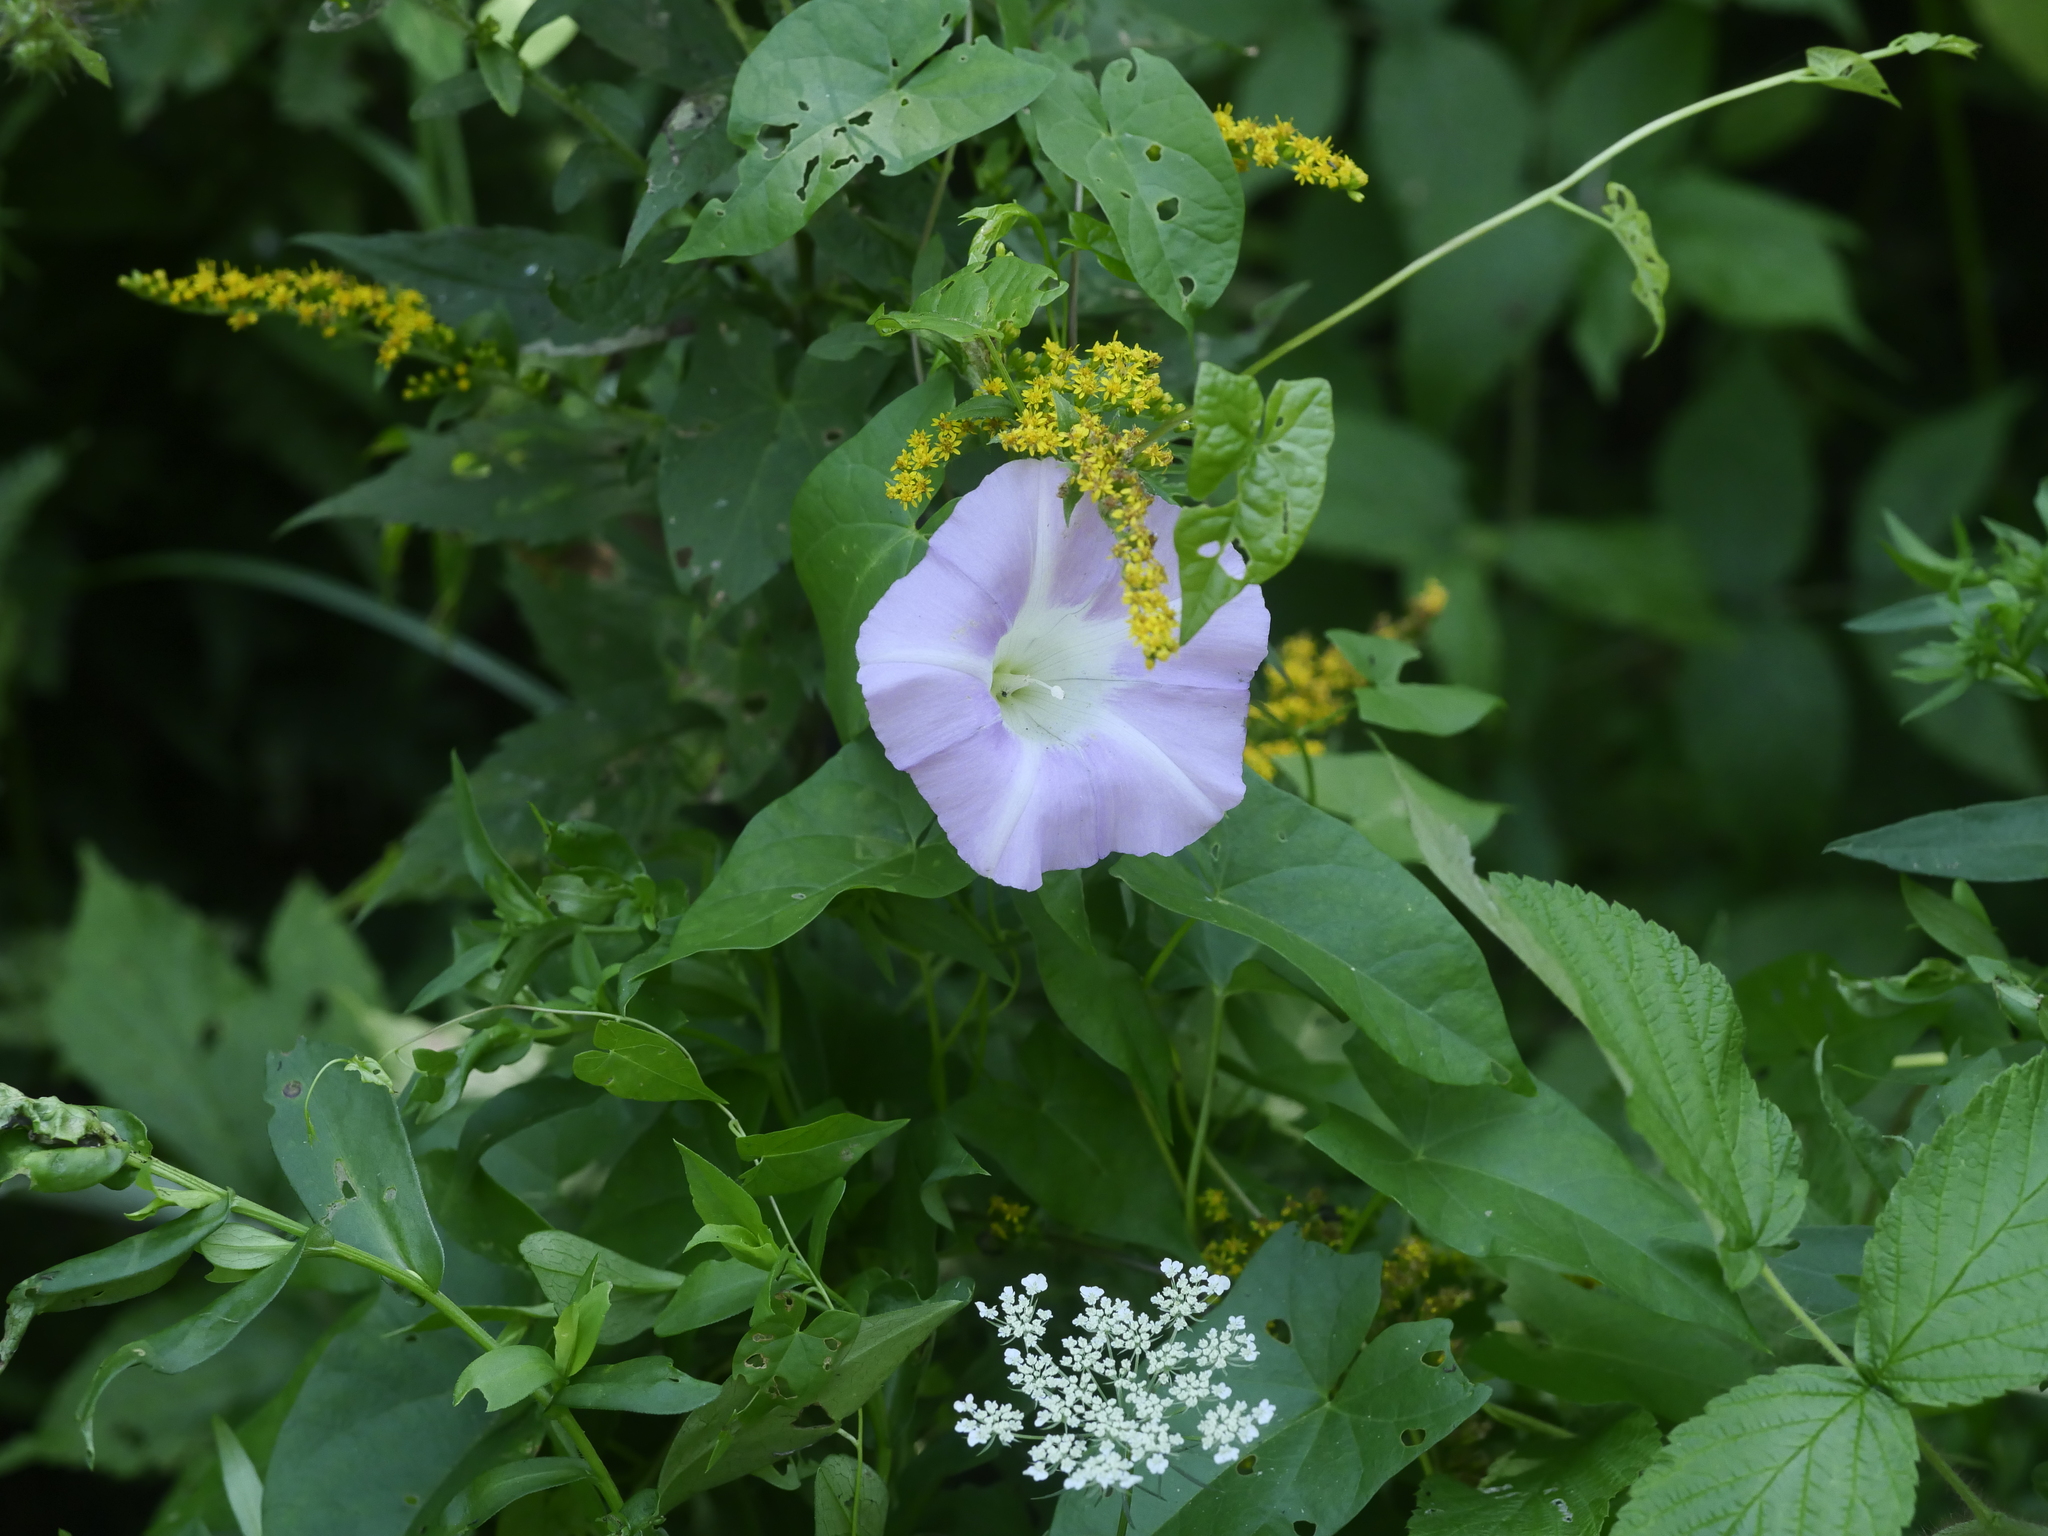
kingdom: Plantae
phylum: Tracheophyta
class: Magnoliopsida
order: Solanales
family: Convolvulaceae
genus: Calystegia
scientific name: Calystegia sepium
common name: Hedge bindweed
